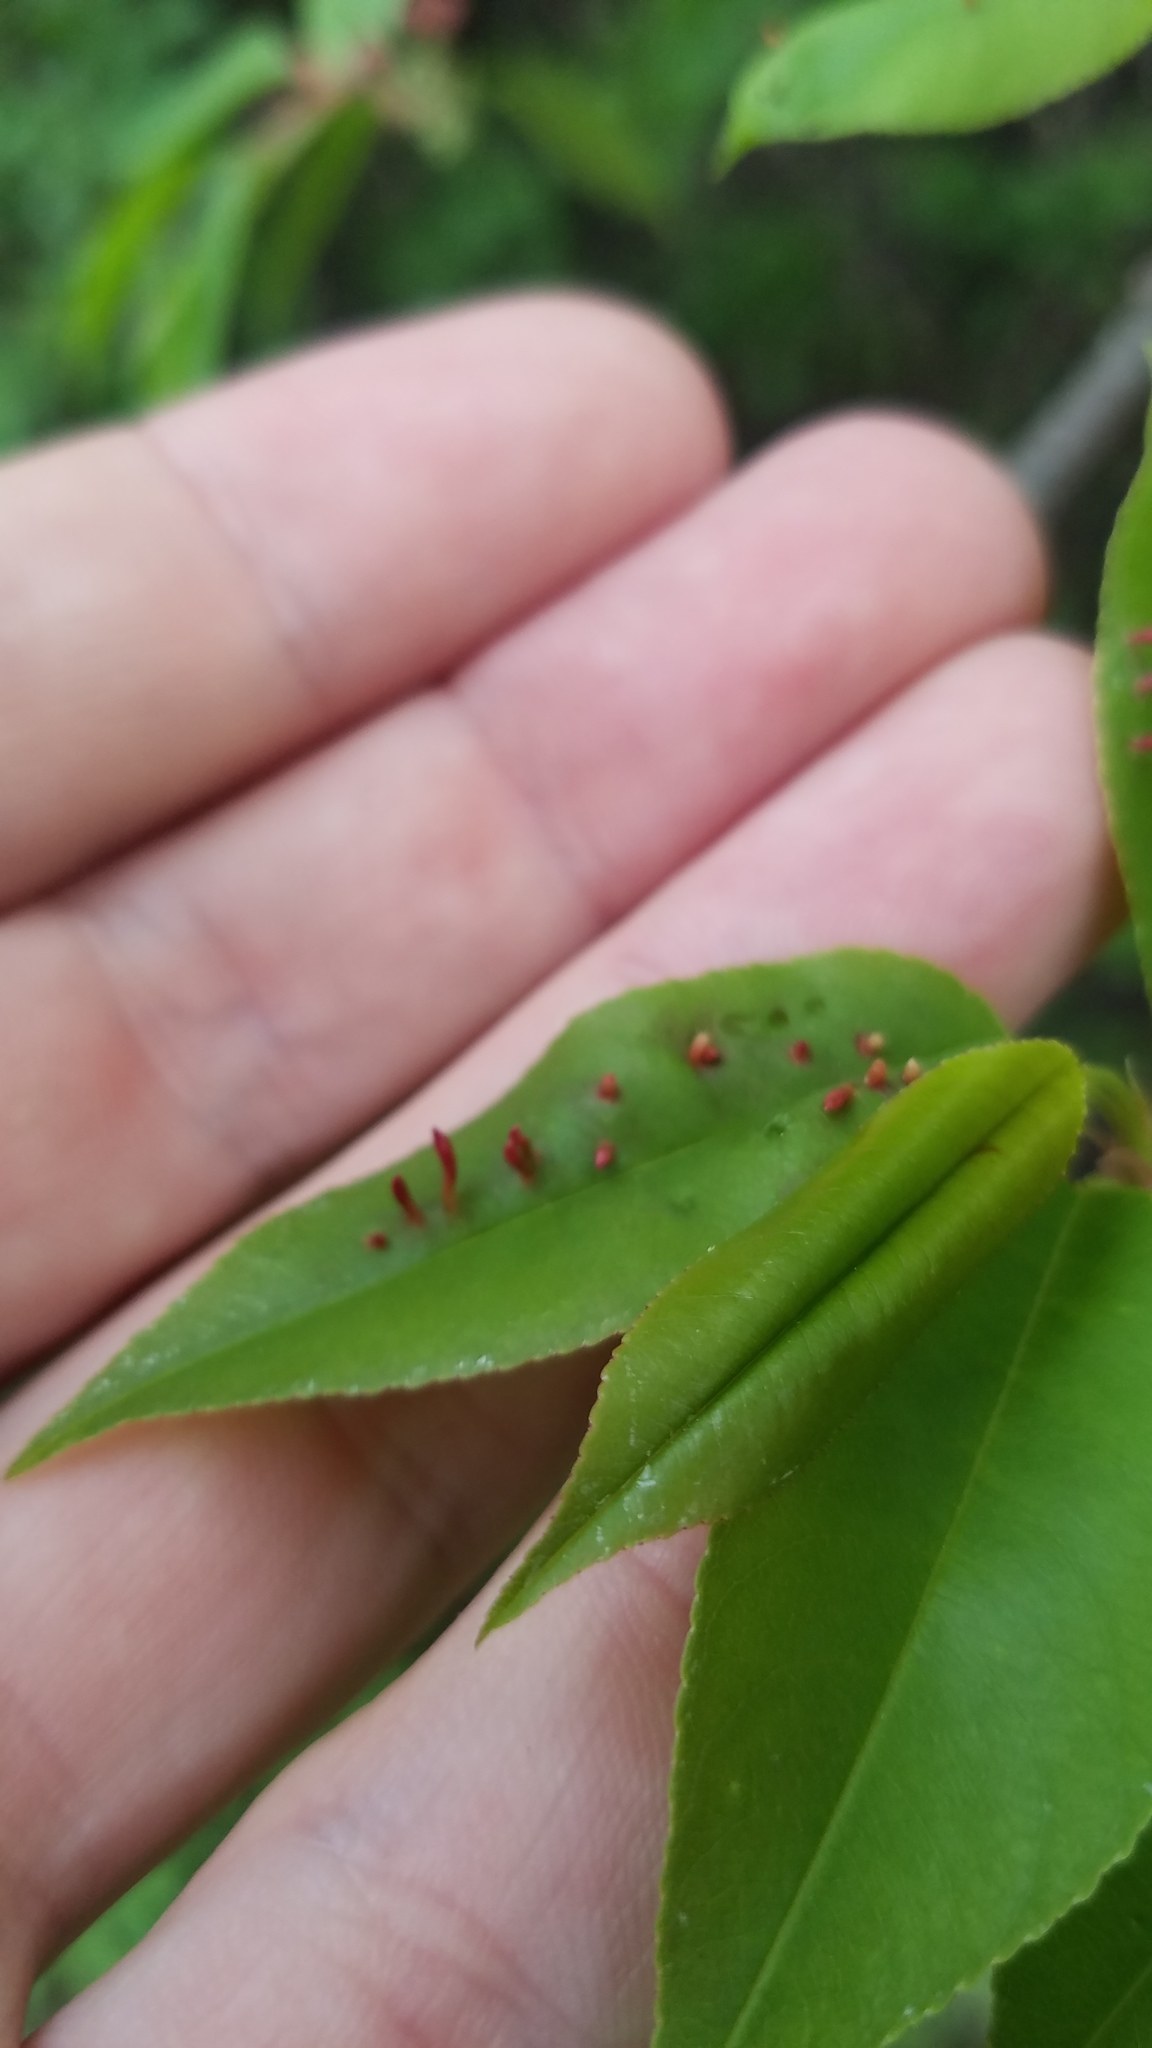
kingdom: Animalia
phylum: Arthropoda
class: Arachnida
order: Trombidiformes
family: Eriophyidae
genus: Eriophyes
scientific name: Eriophyes
